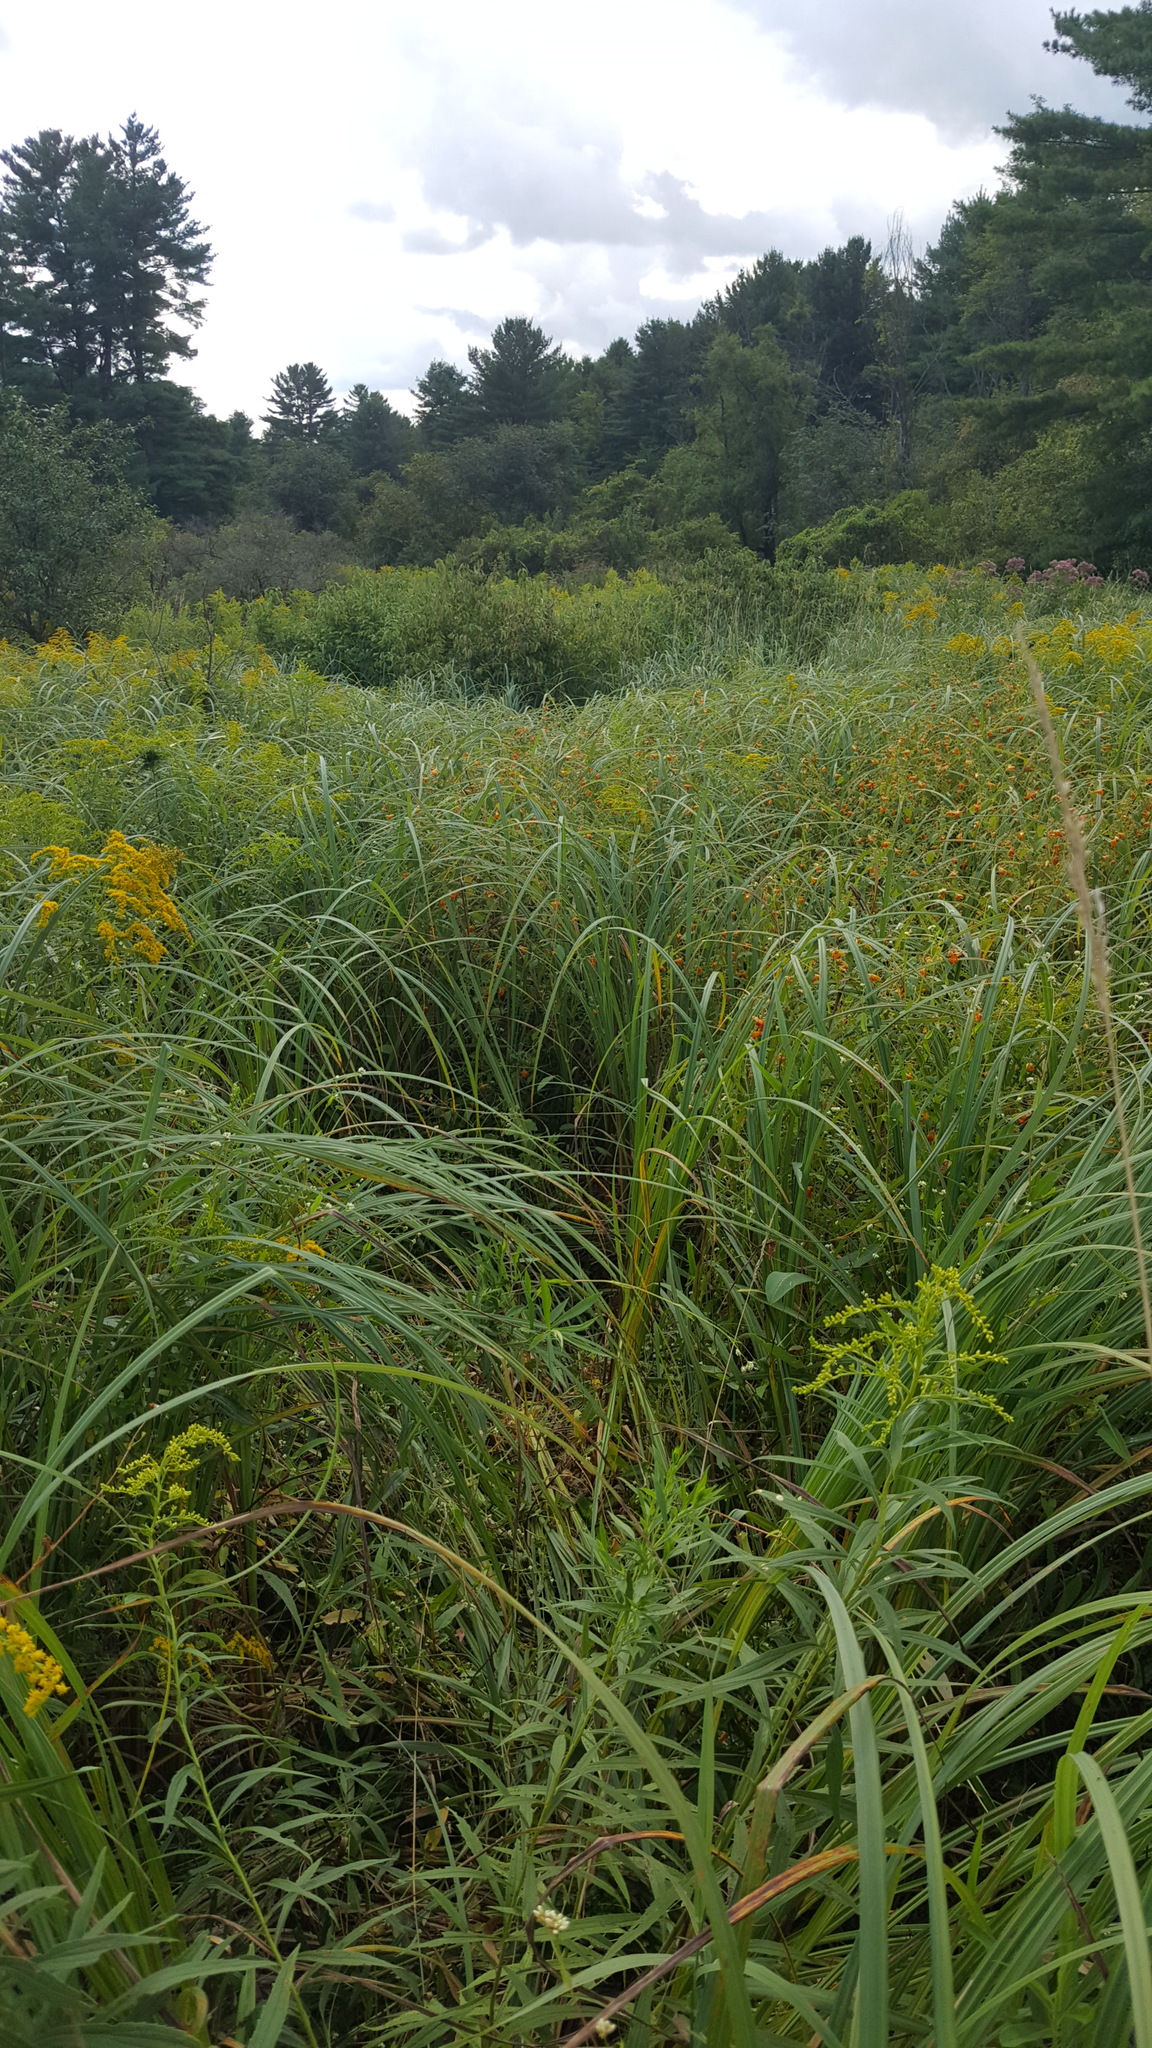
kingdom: Plantae
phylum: Tracheophyta
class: Magnoliopsida
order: Ericales
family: Balsaminaceae
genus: Impatiens
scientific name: Impatiens capensis
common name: Orange balsam
